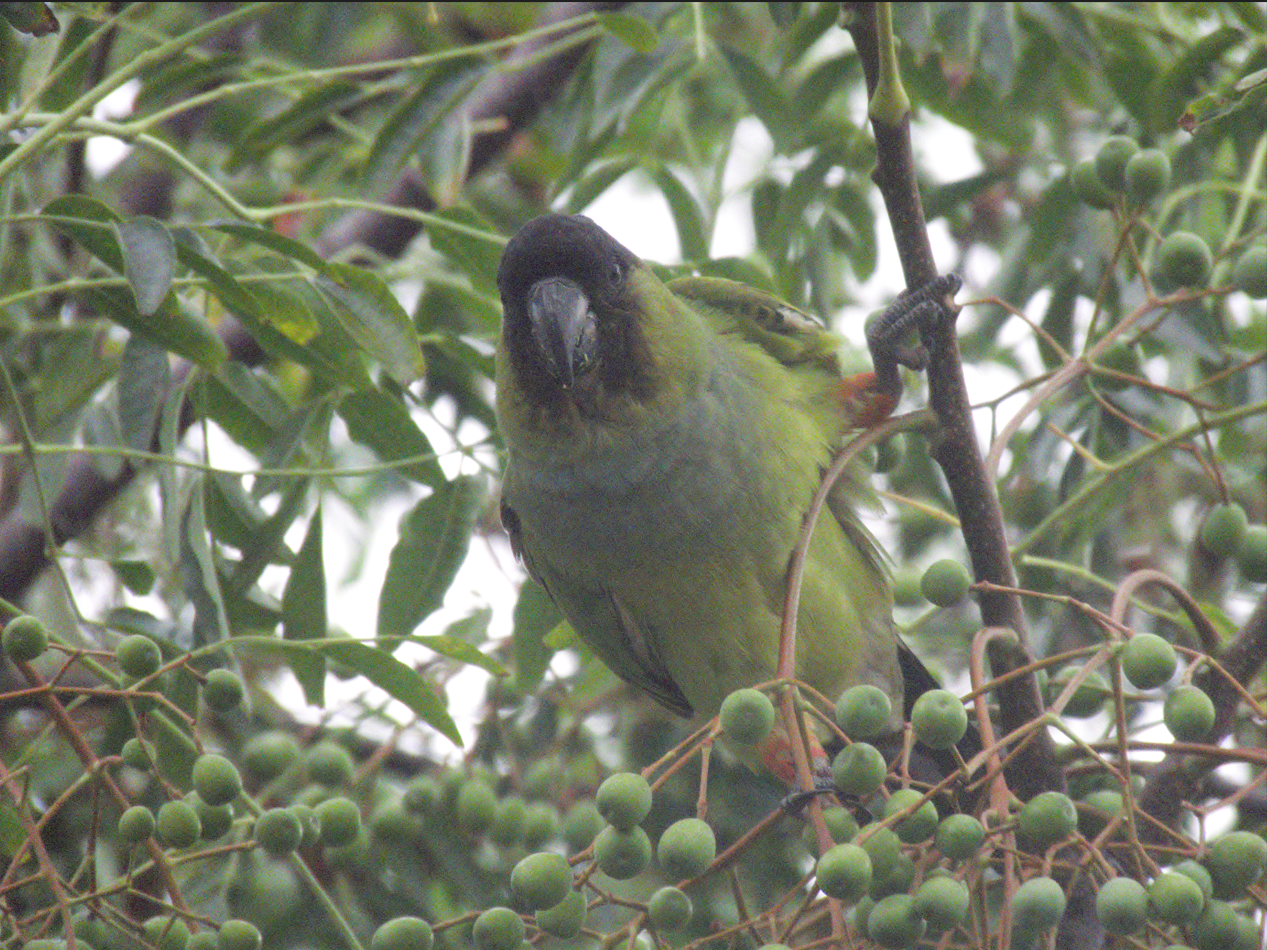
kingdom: Animalia
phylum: Chordata
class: Aves
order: Psittaciformes
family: Psittacidae
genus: Nandayus
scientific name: Nandayus nenday
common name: Nanday parakeet
